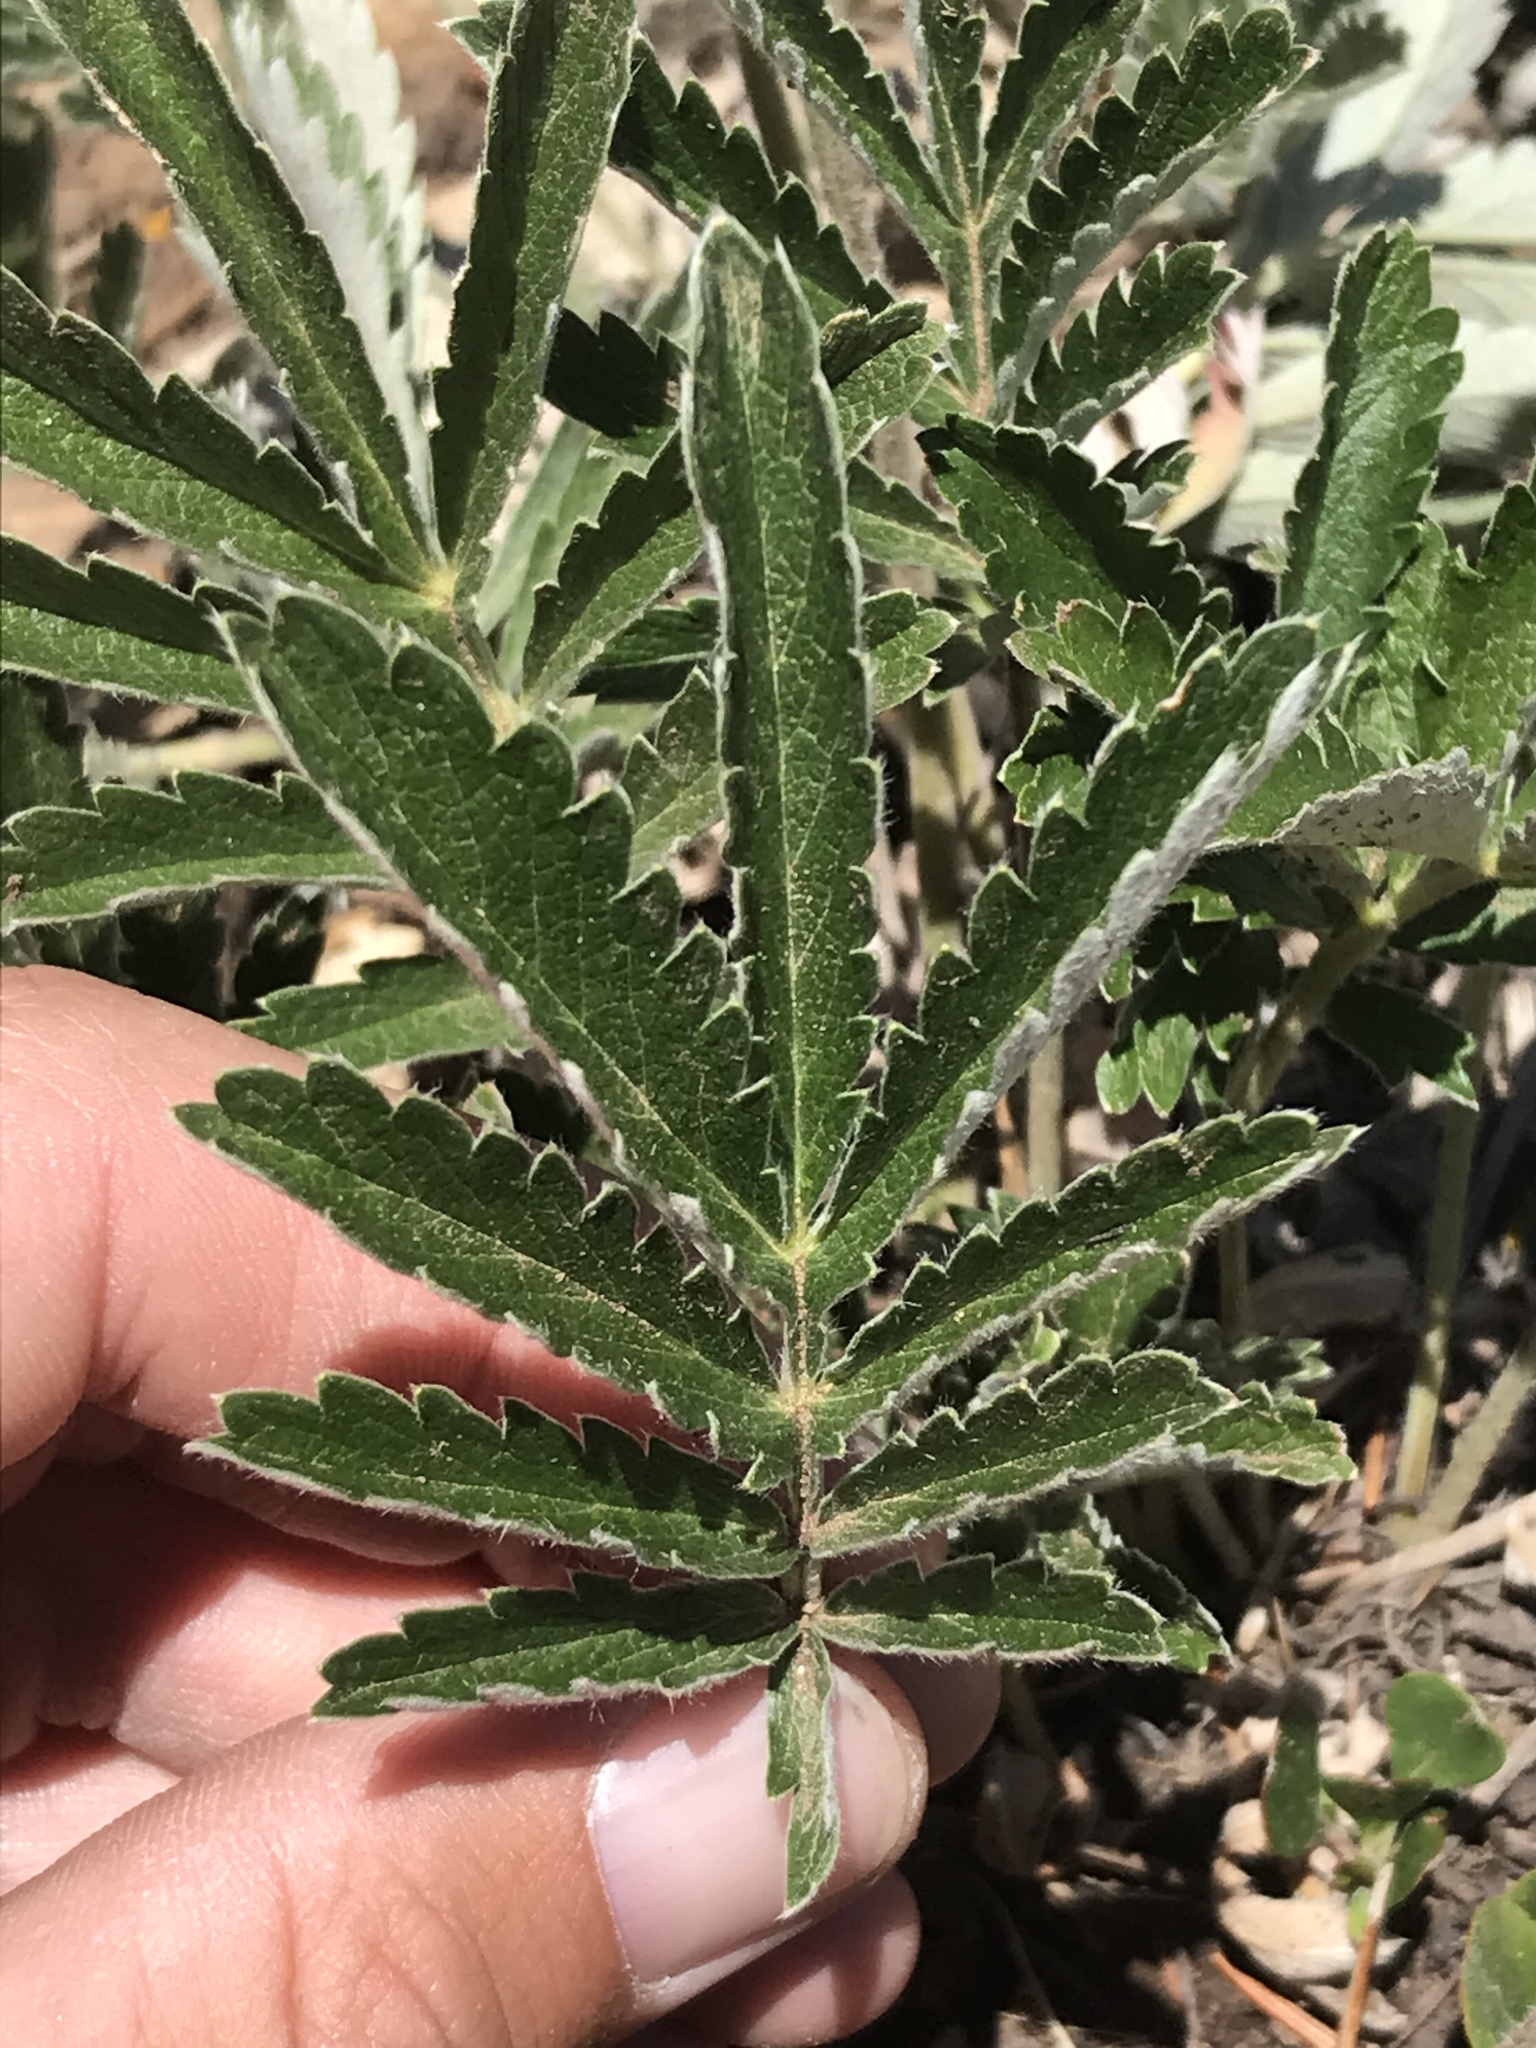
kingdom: Plantae
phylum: Tracheophyta
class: Magnoliopsida
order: Rosales
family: Rosaceae
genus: Potentilla
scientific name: Potentilla hippiana
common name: Woolly cinquefoil
